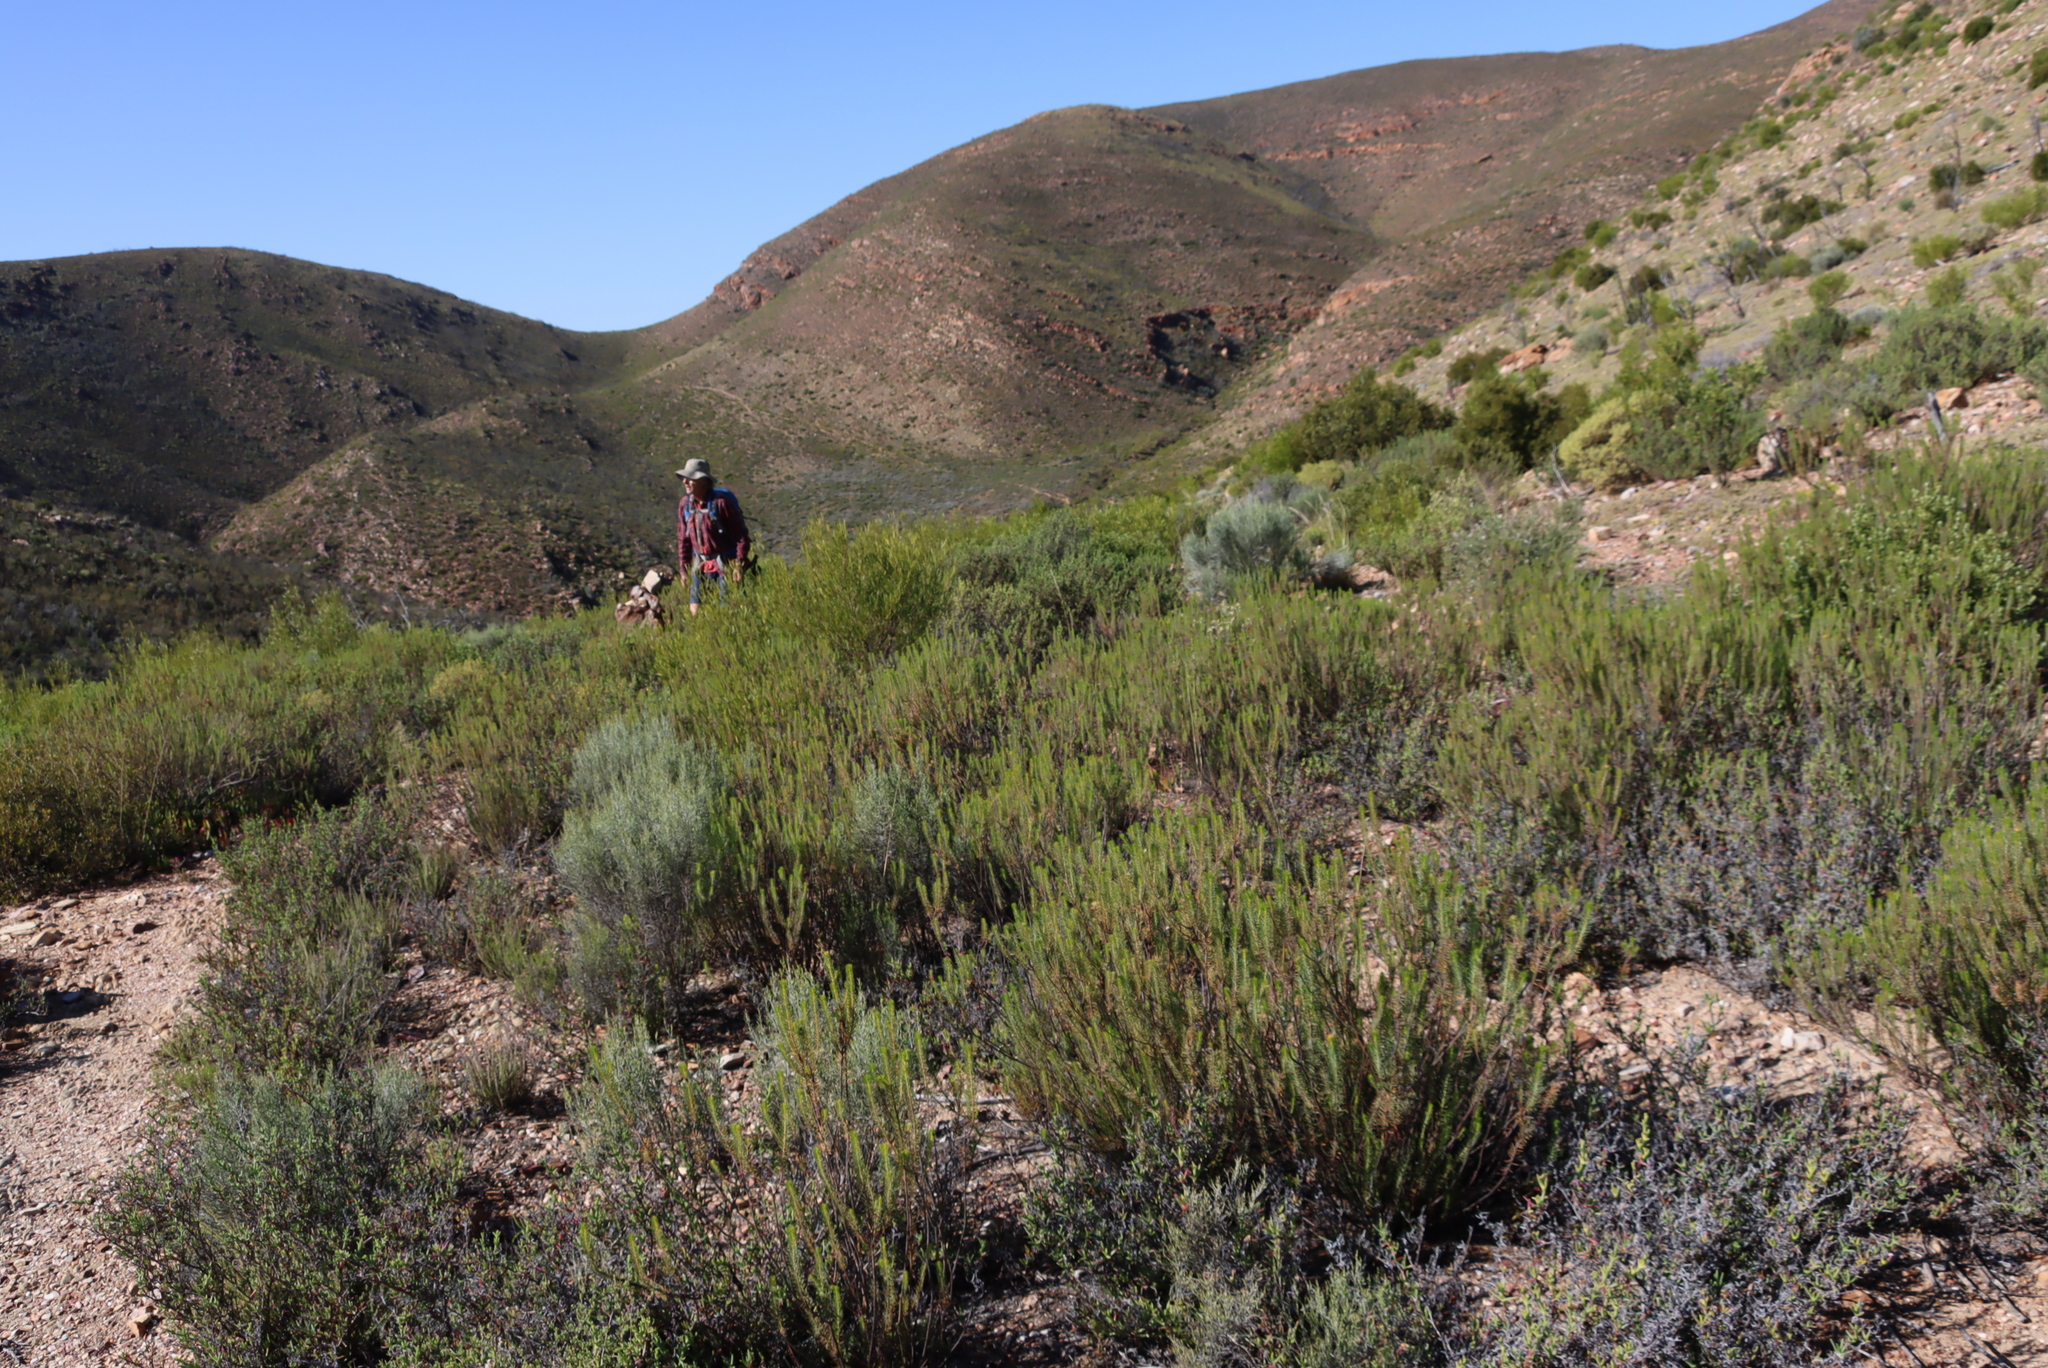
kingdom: Plantae
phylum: Tracheophyta
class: Magnoliopsida
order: Asterales
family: Asteraceae
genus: Dicerothamnus
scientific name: Dicerothamnus rhinocerotis
